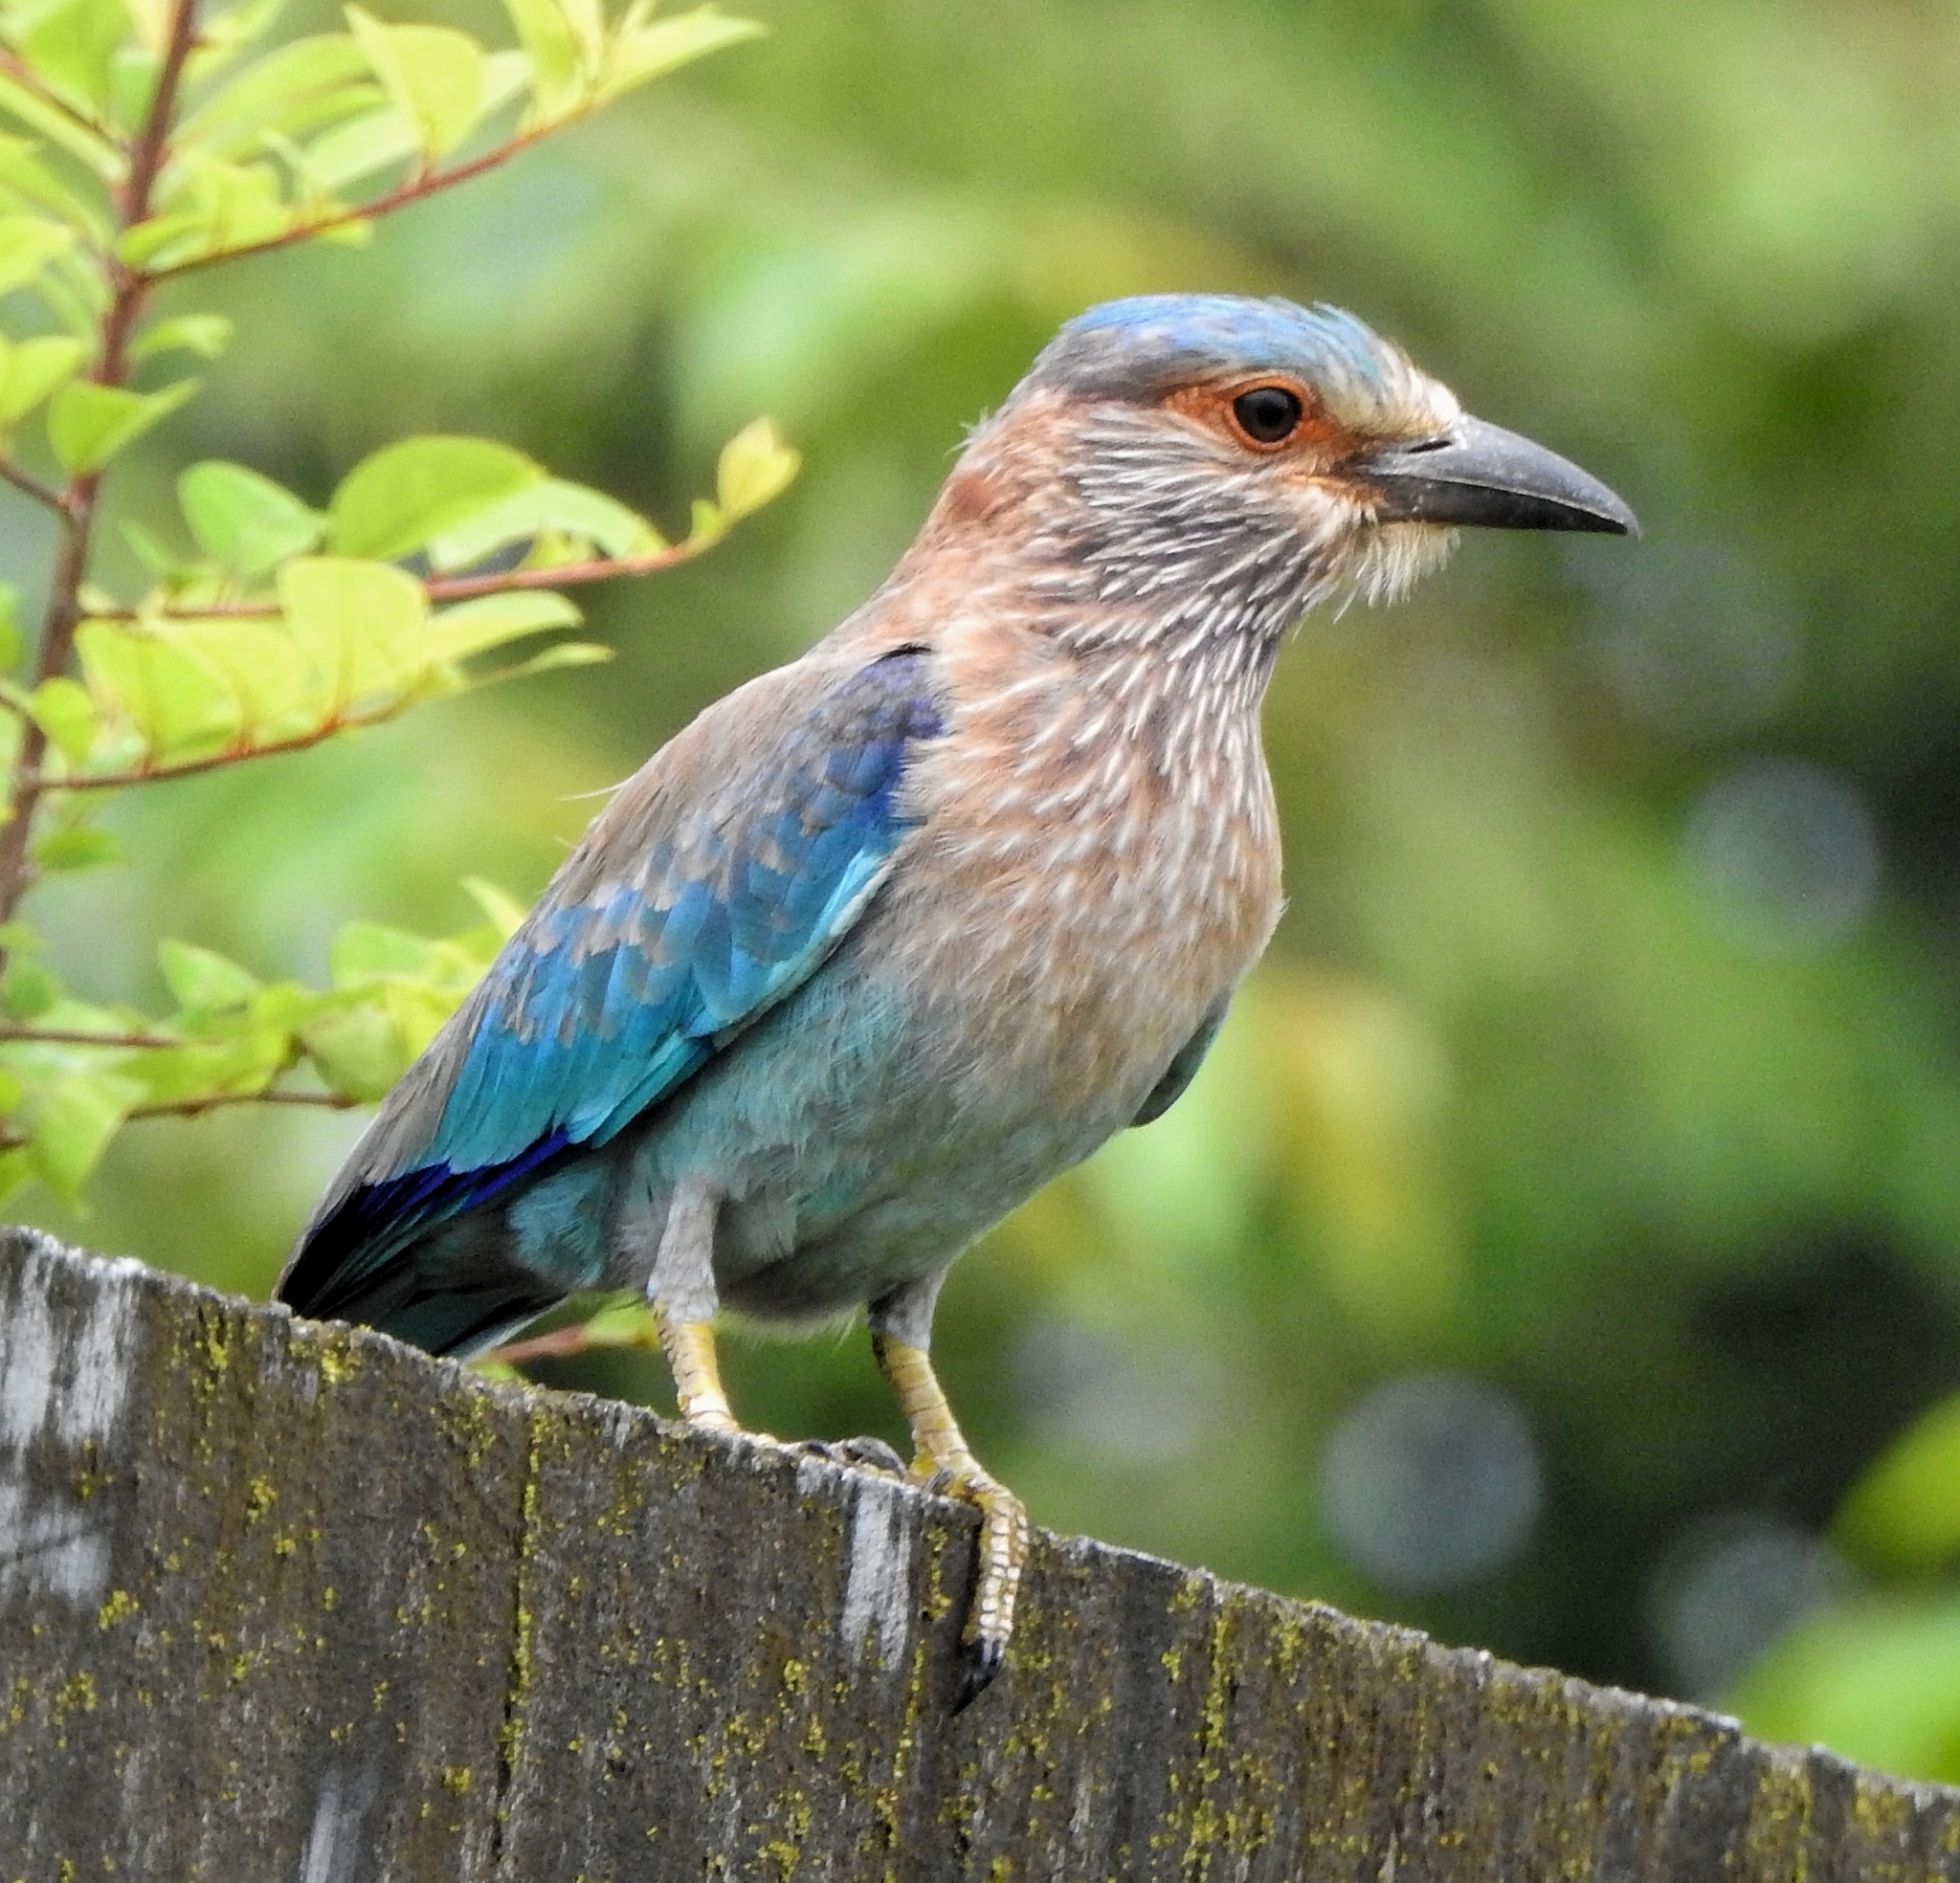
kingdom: Animalia
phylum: Chordata
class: Aves
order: Coraciiformes
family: Coraciidae
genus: Coracias
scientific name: Coracias benghalensis
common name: Indian roller
